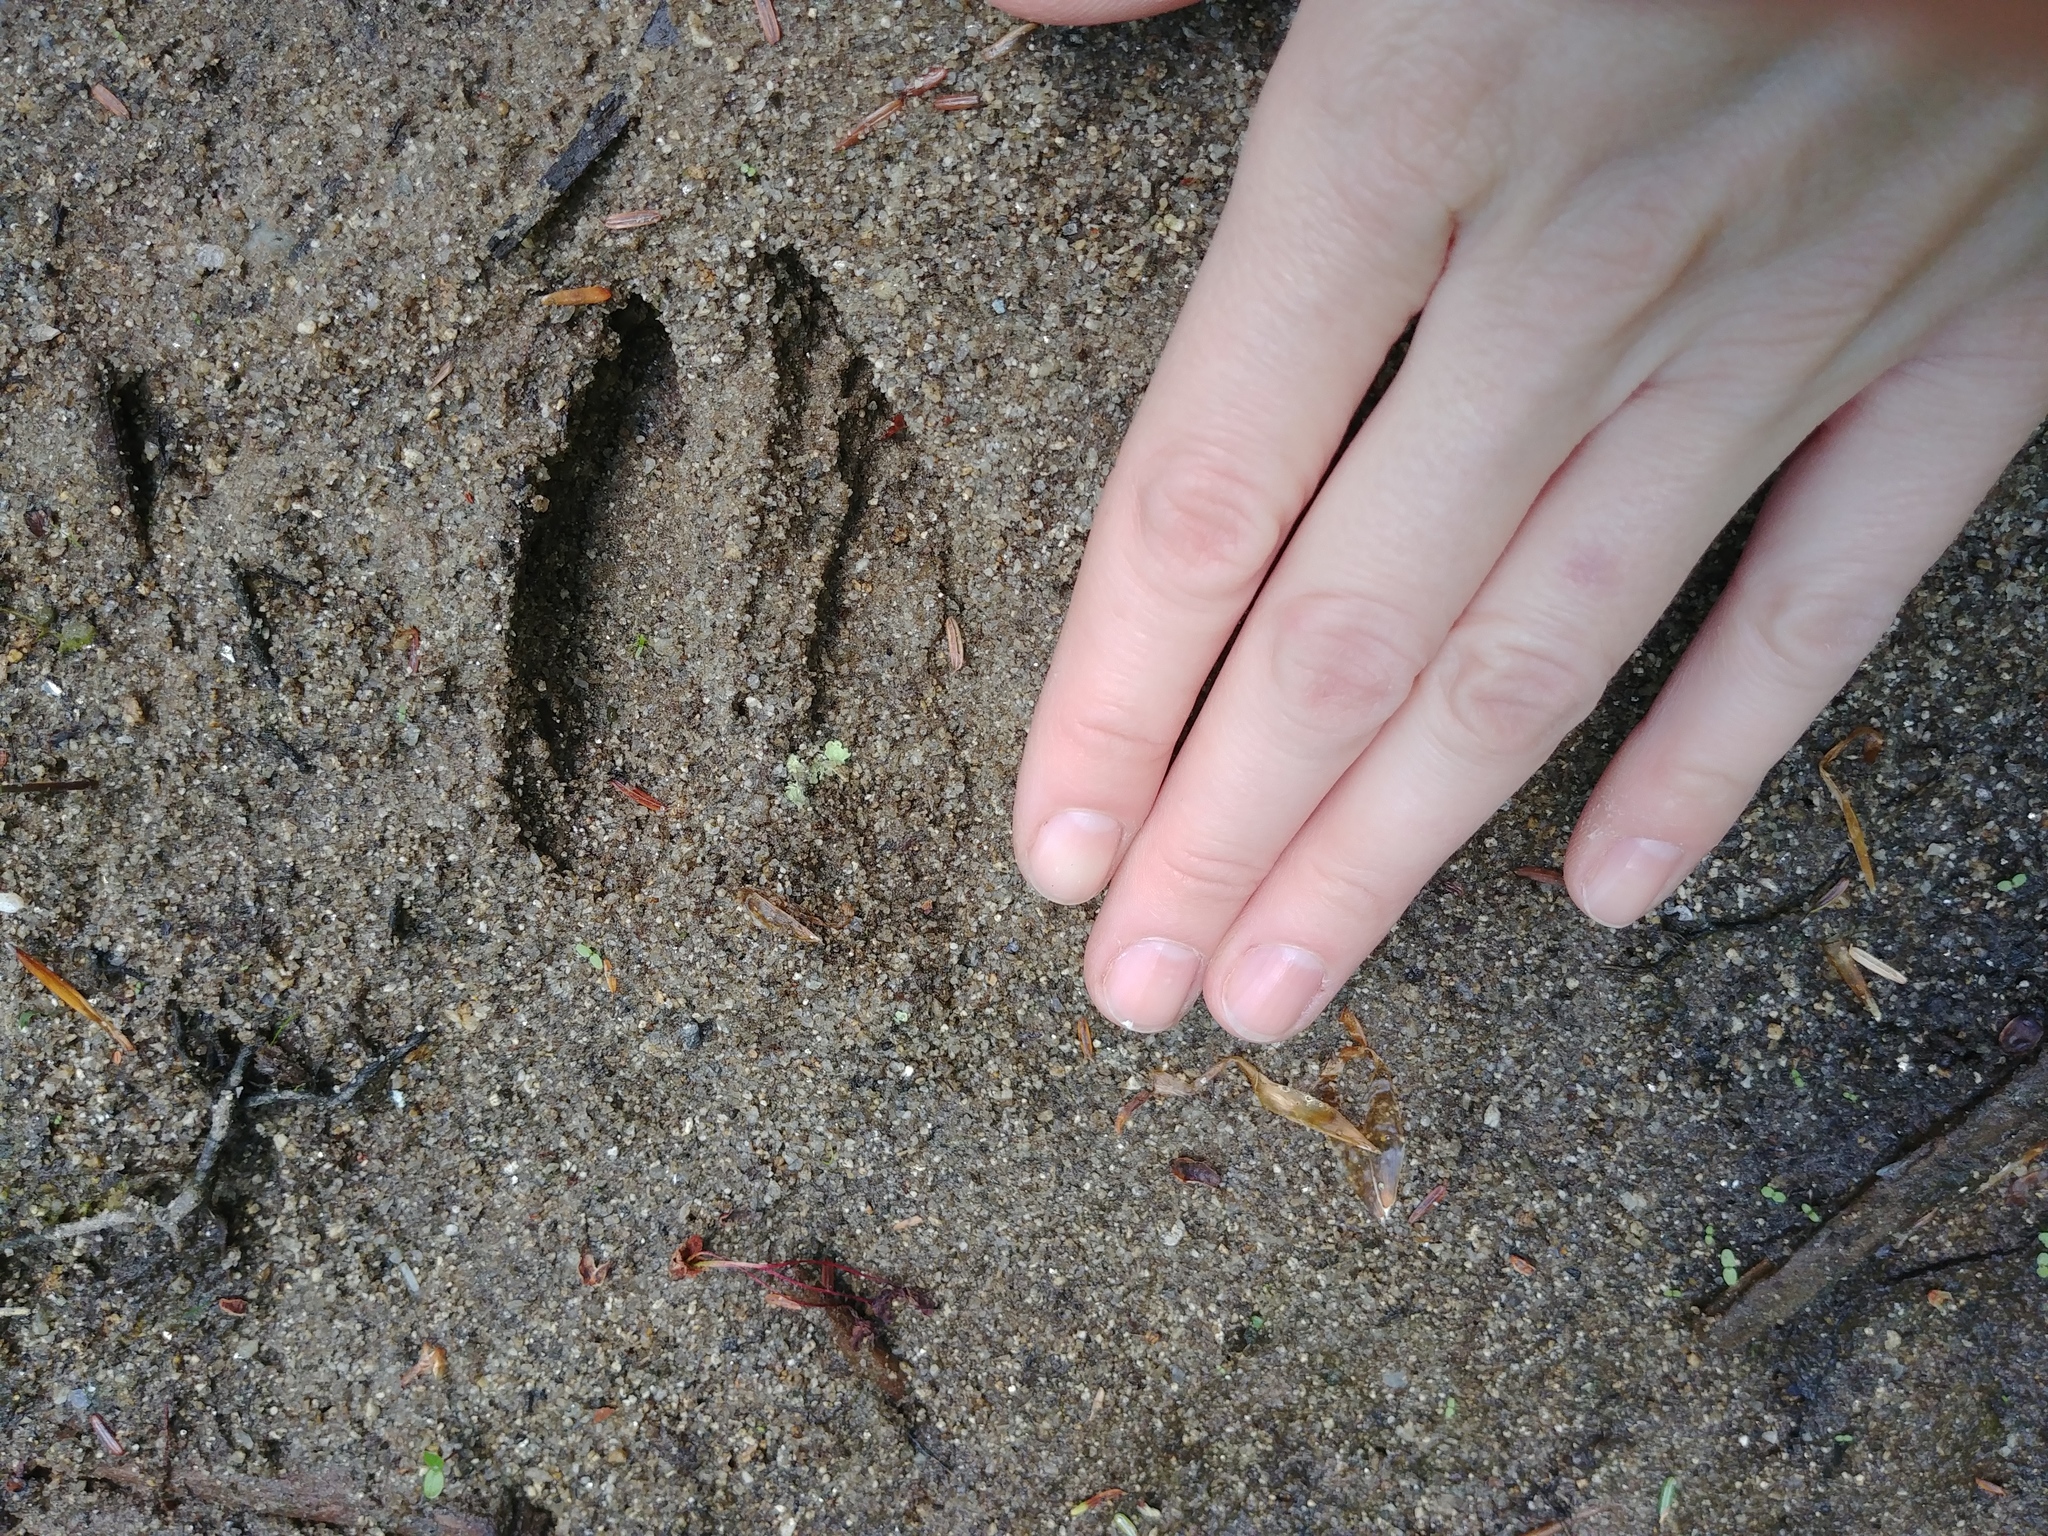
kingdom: Animalia
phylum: Chordata
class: Mammalia
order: Artiodactyla
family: Cervidae
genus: Odocoileus
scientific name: Odocoileus virginianus
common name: White-tailed deer
